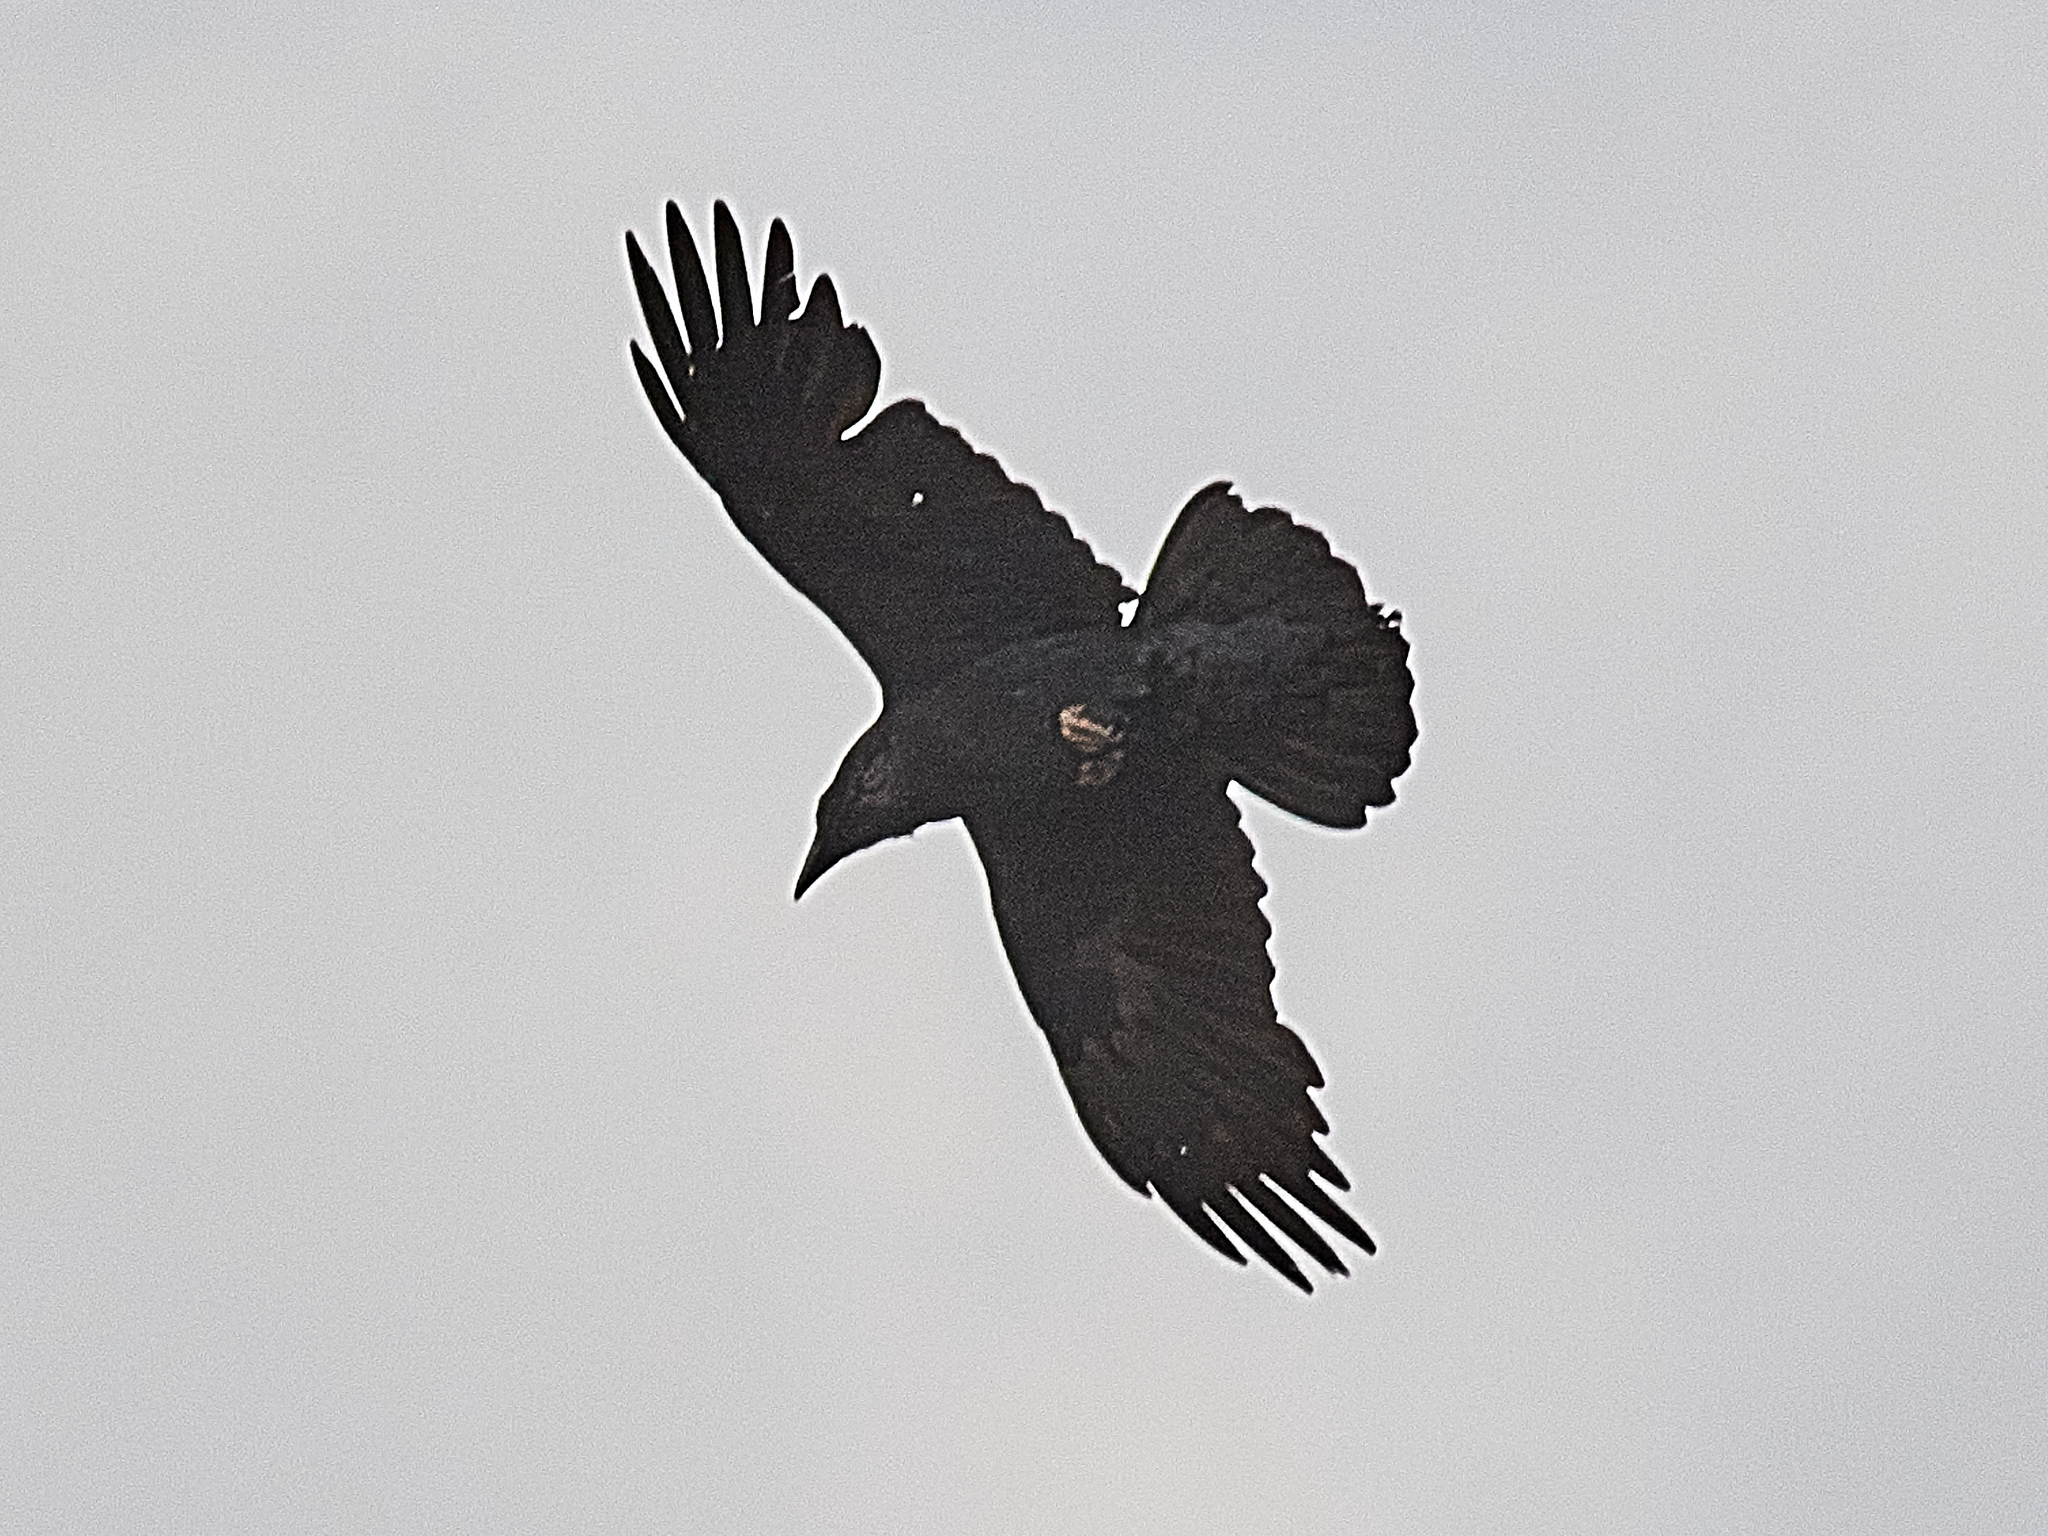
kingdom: Animalia
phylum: Chordata
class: Aves
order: Passeriformes
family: Corvidae
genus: Corvus
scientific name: Corvus corax
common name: Common raven
